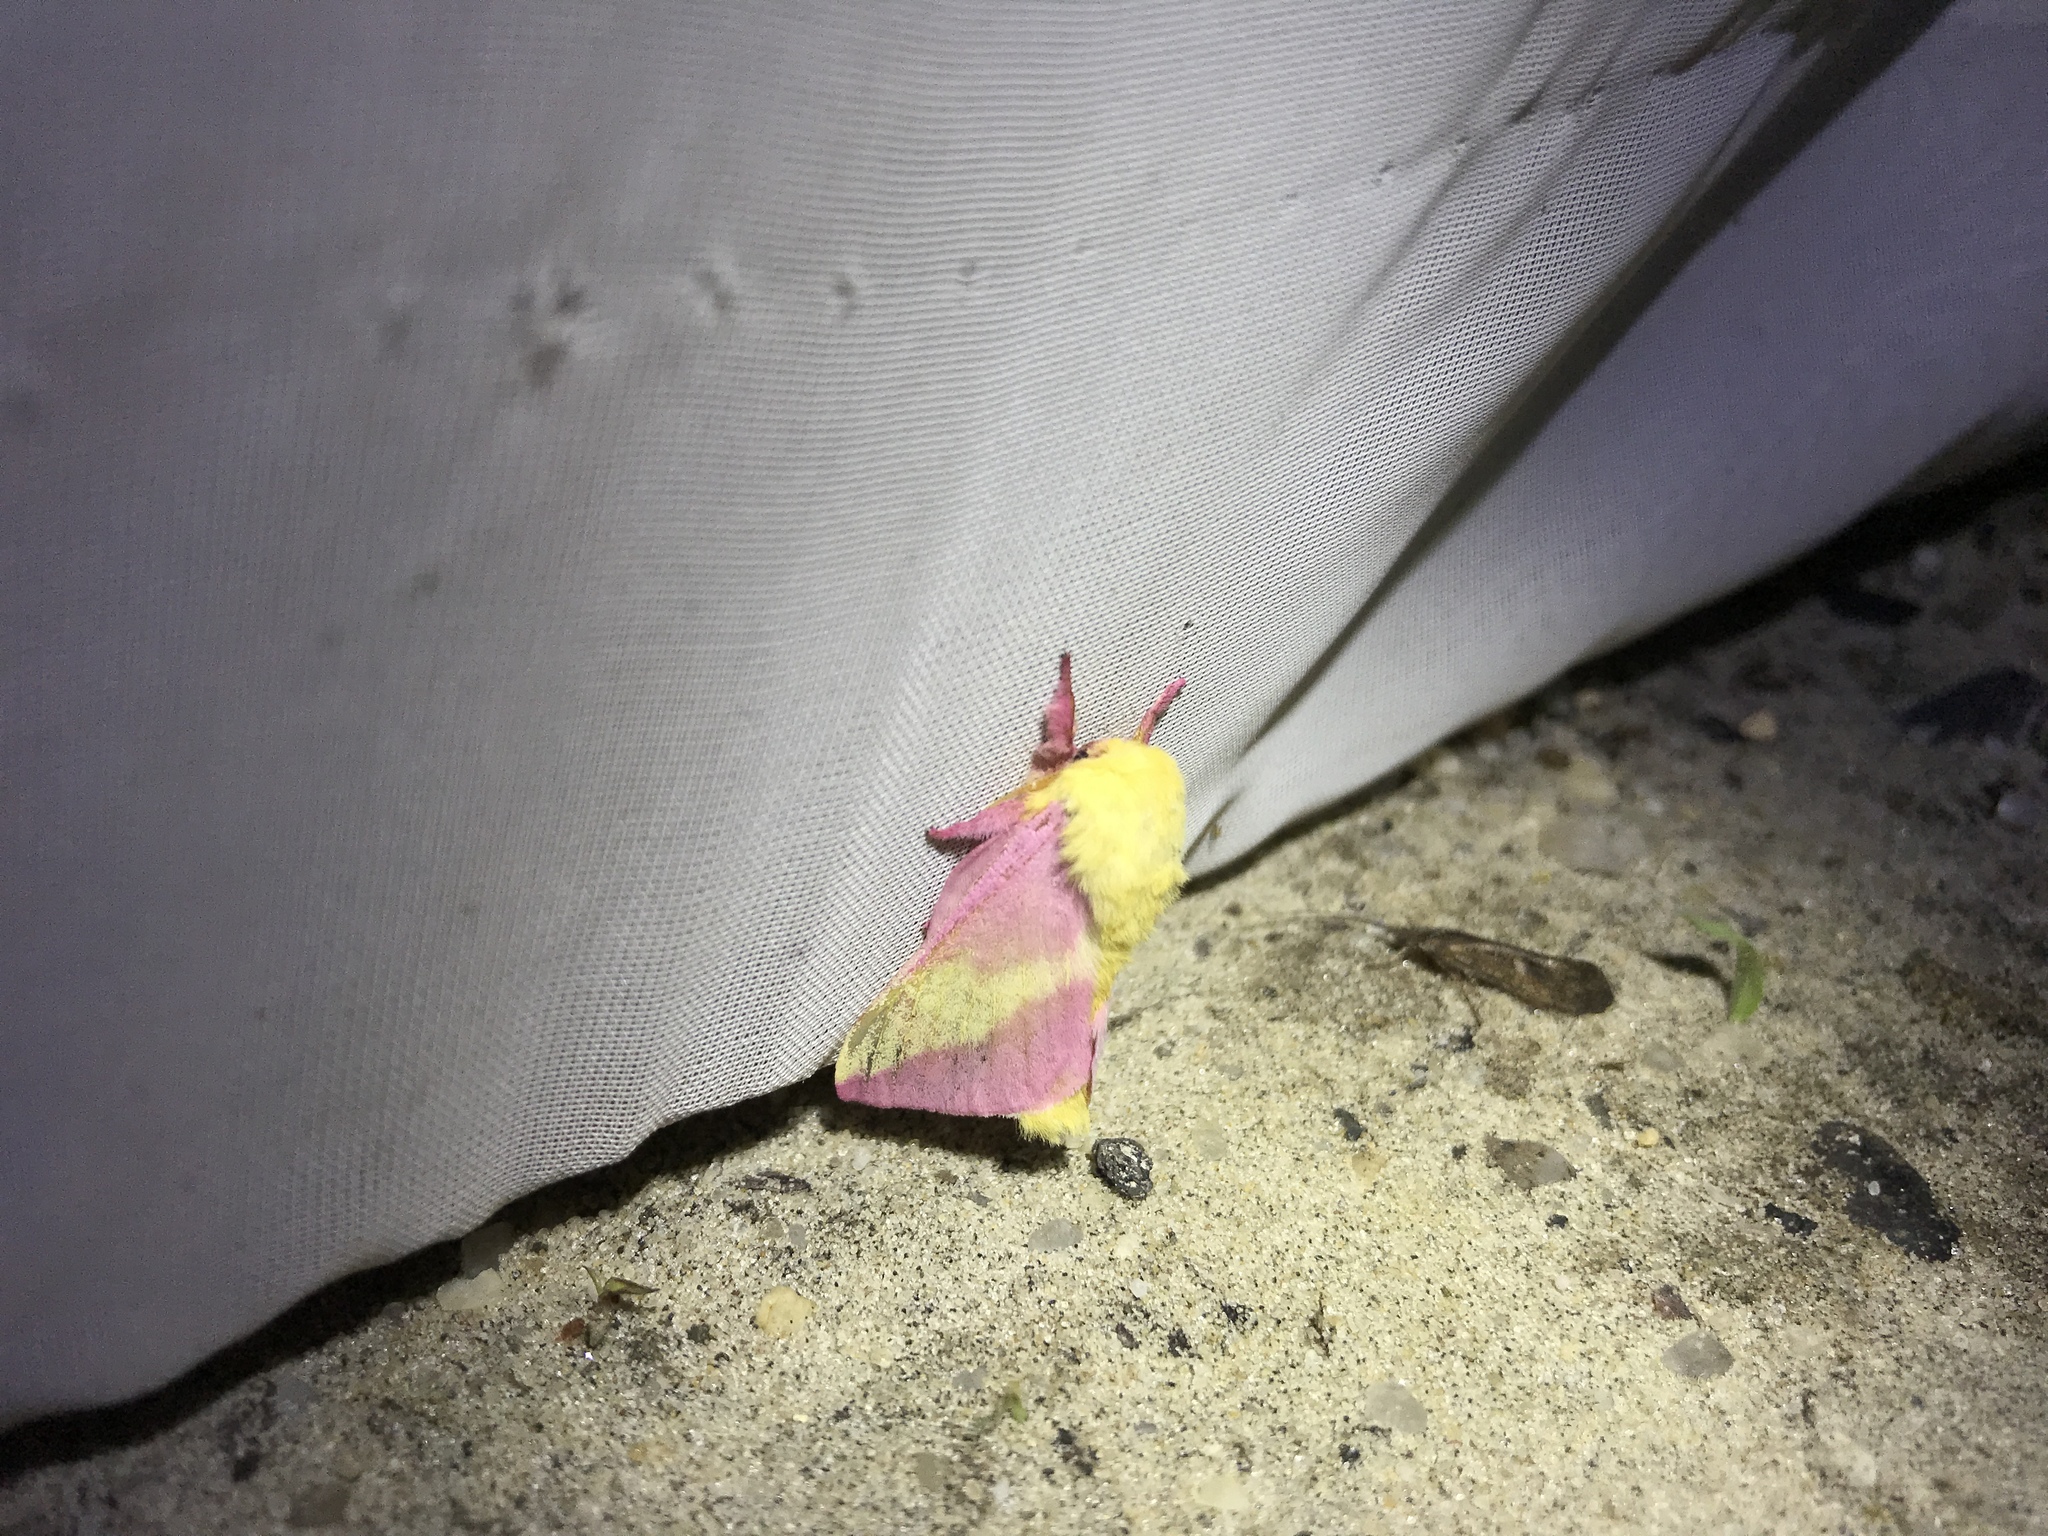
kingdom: Animalia
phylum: Arthropoda
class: Insecta
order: Lepidoptera
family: Saturniidae
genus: Dryocampa
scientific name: Dryocampa rubicunda
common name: Rosy maple moth
